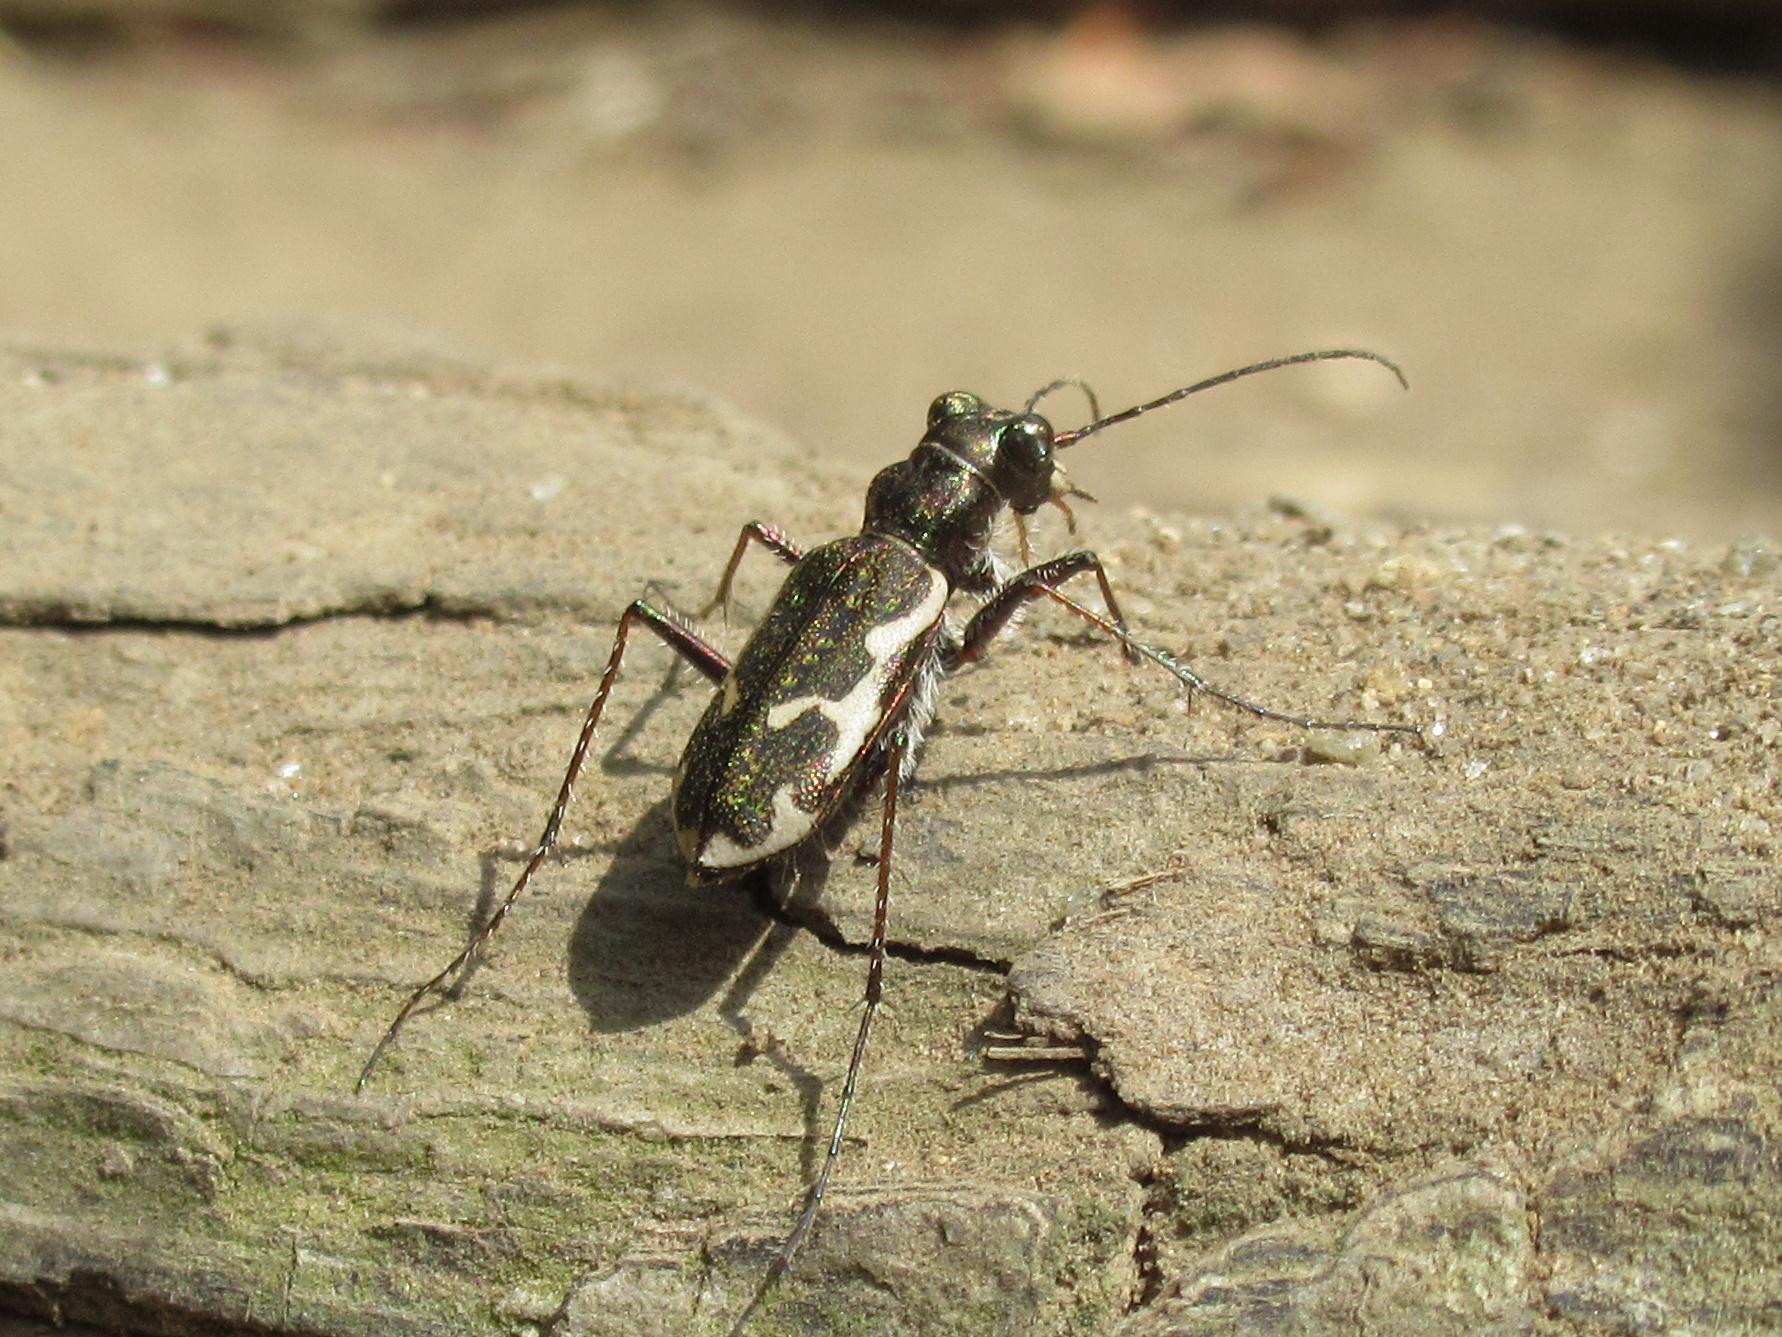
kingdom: Animalia
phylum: Arthropoda
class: Insecta
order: Coleoptera
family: Carabidae
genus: Neocicindela
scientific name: Neocicindela tuberculata
